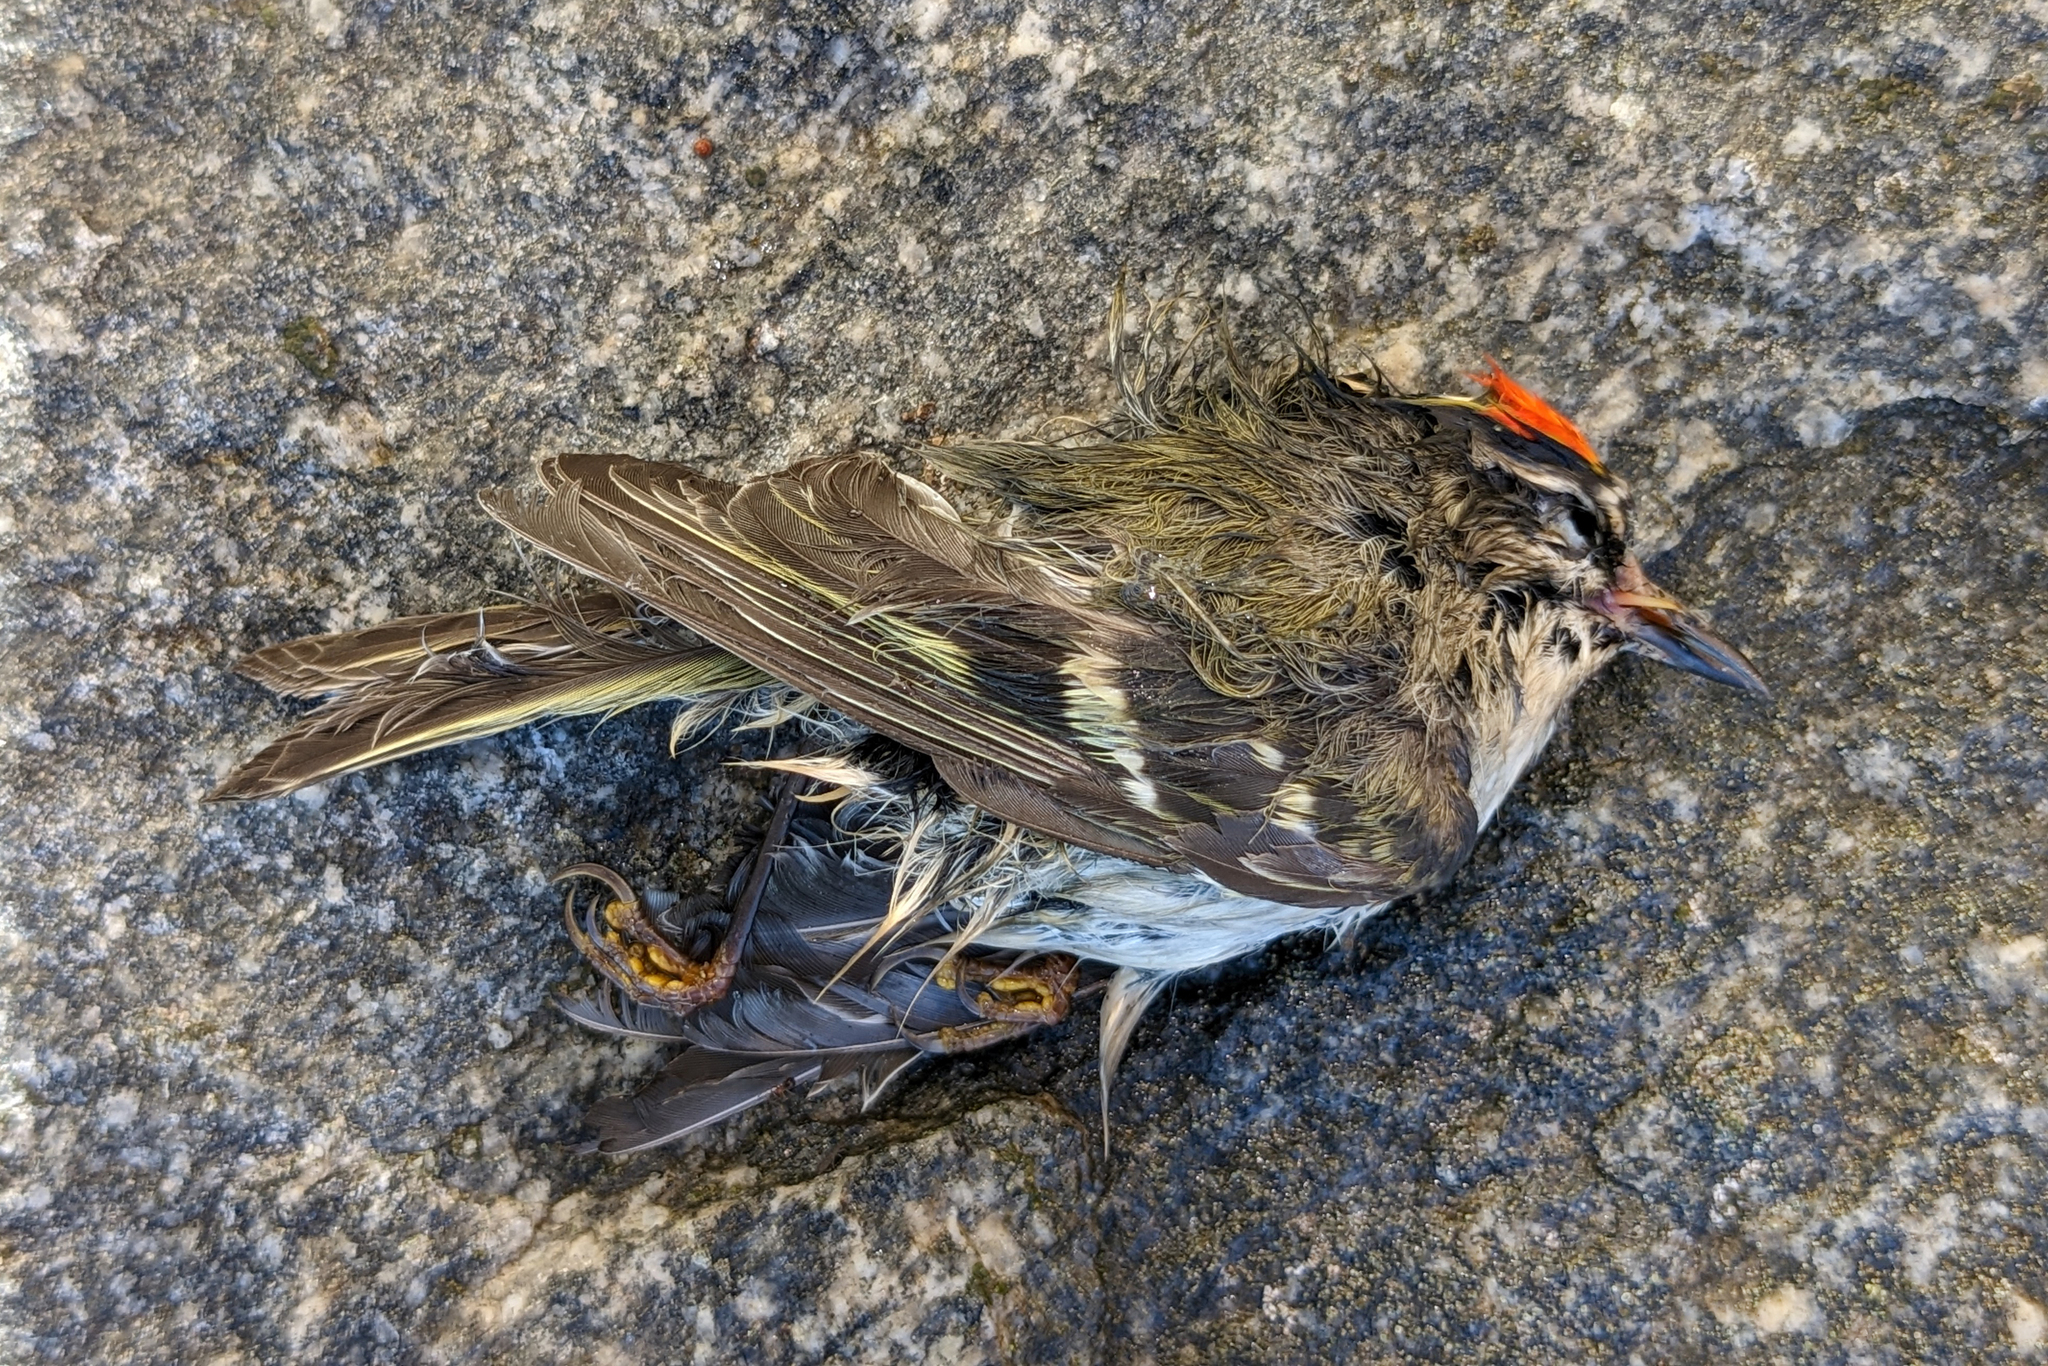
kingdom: Animalia
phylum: Chordata
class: Aves
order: Passeriformes
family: Regulidae
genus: Regulus
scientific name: Regulus satrapa
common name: Golden-crowned kinglet
